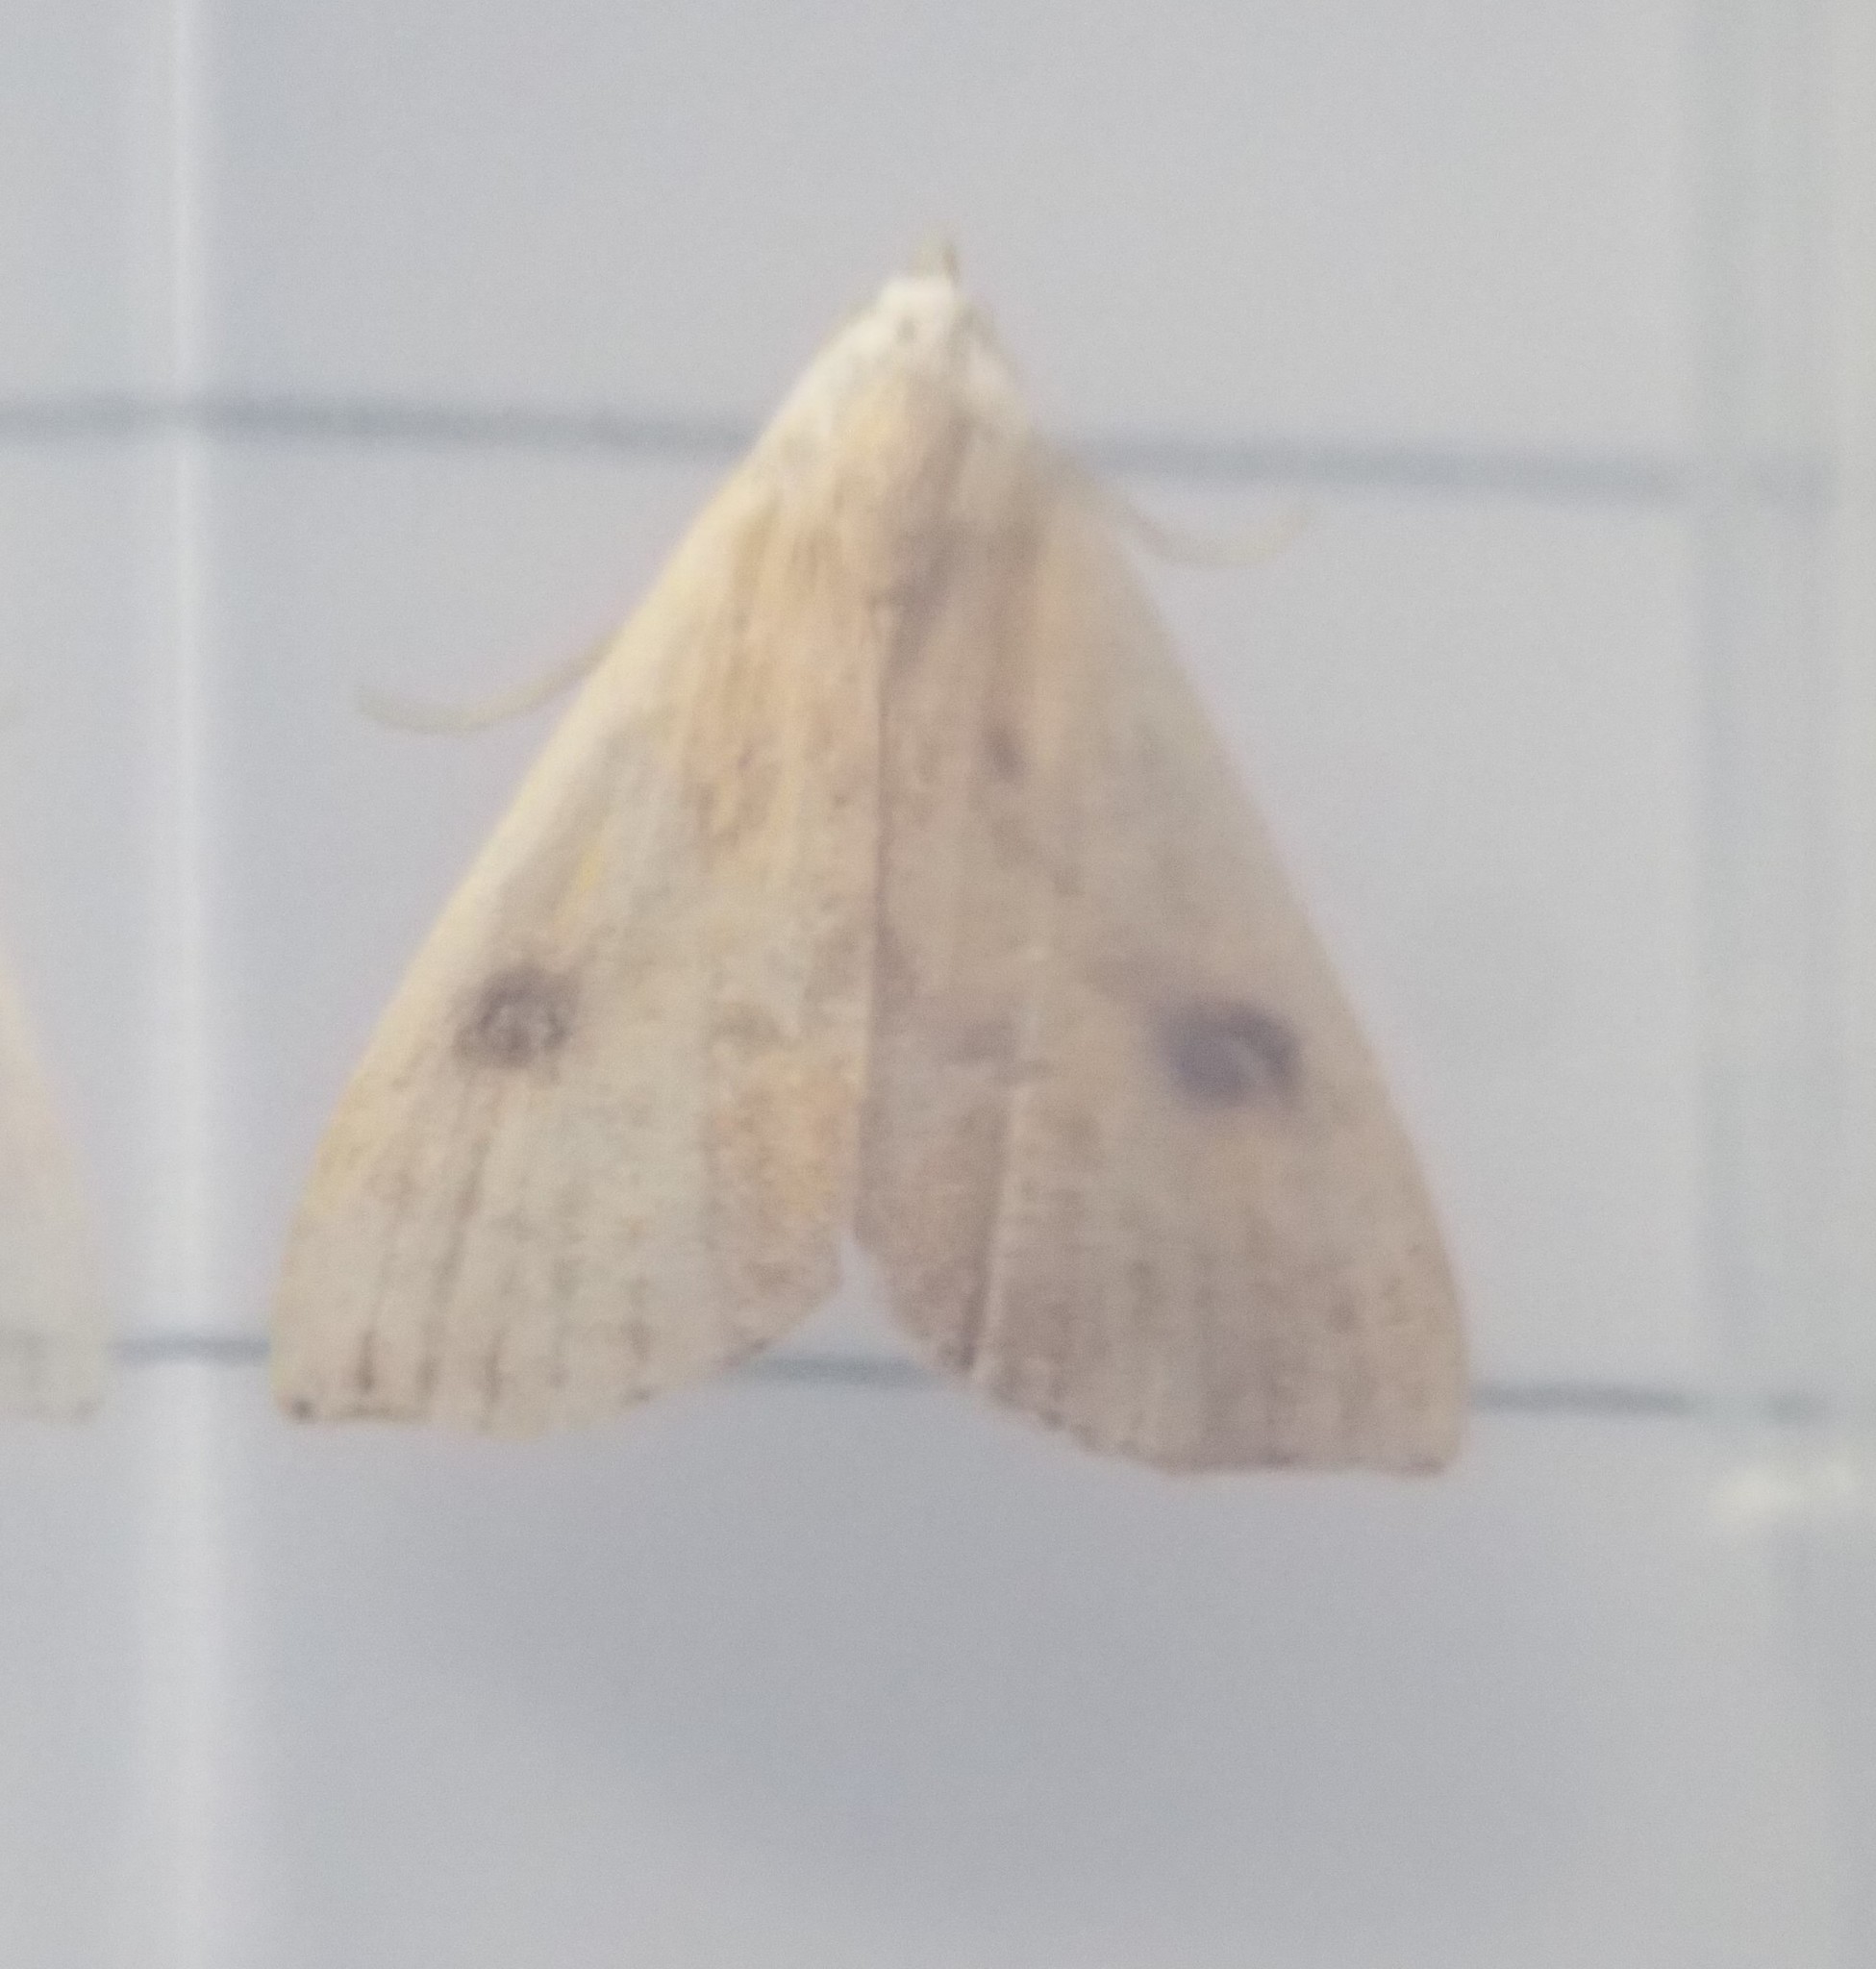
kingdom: Animalia
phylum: Arthropoda
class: Insecta
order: Lepidoptera
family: Erebidae
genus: Rivula
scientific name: Rivula sericealis
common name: Straw dot
